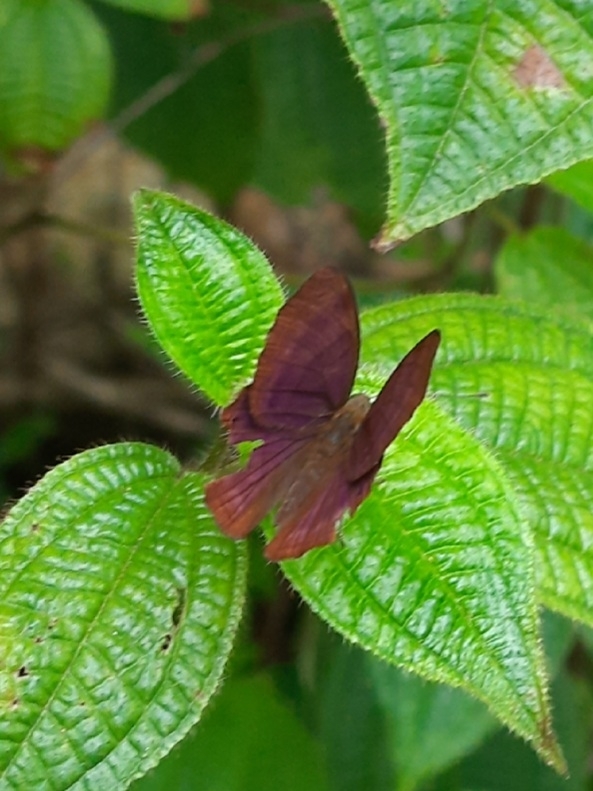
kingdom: Animalia
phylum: Arthropoda
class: Insecta
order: Lepidoptera
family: Lycaenidae
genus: Abisara
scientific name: Abisara echeria
